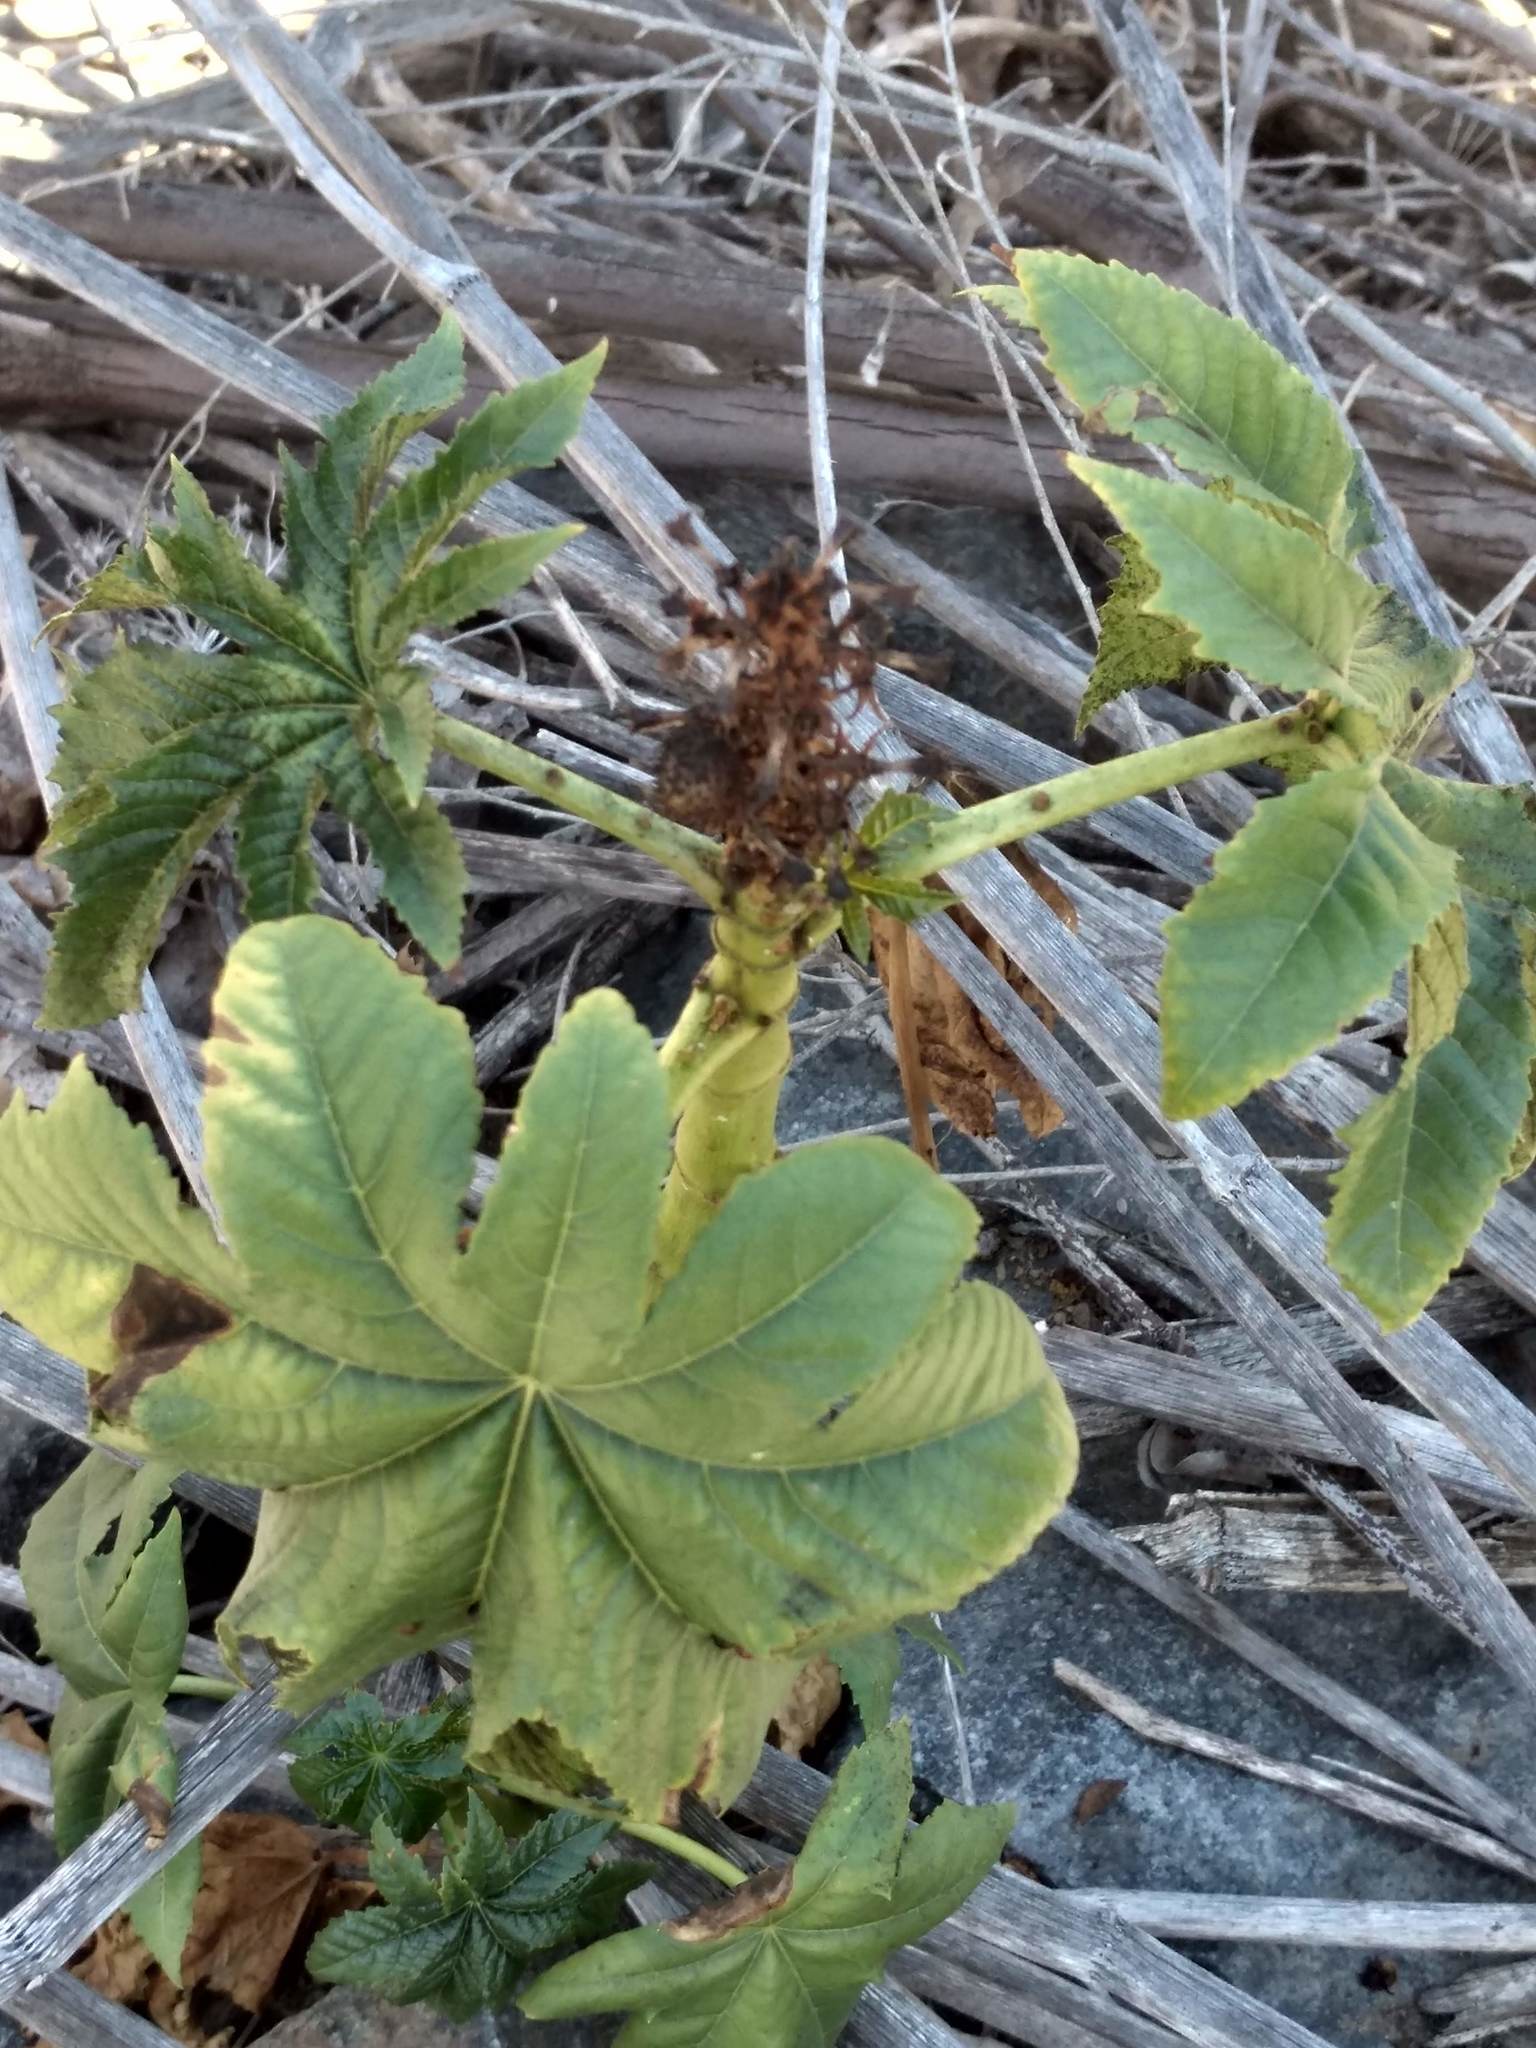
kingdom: Plantae
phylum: Tracheophyta
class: Magnoliopsida
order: Malpighiales
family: Euphorbiaceae
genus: Ricinus
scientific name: Ricinus communis
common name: Castor-oil-plant
